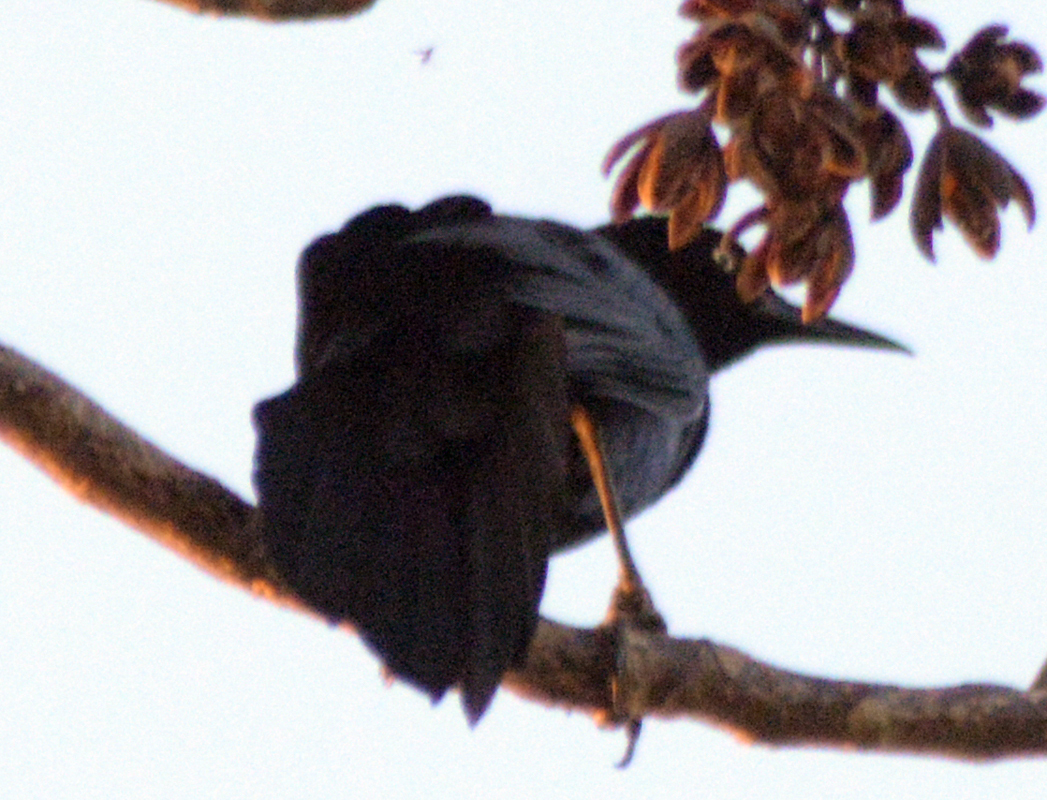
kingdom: Animalia
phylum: Chordata
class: Aves
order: Passeriformes
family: Icteridae
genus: Quiscalus
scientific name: Quiscalus mexicanus
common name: Great-tailed grackle
